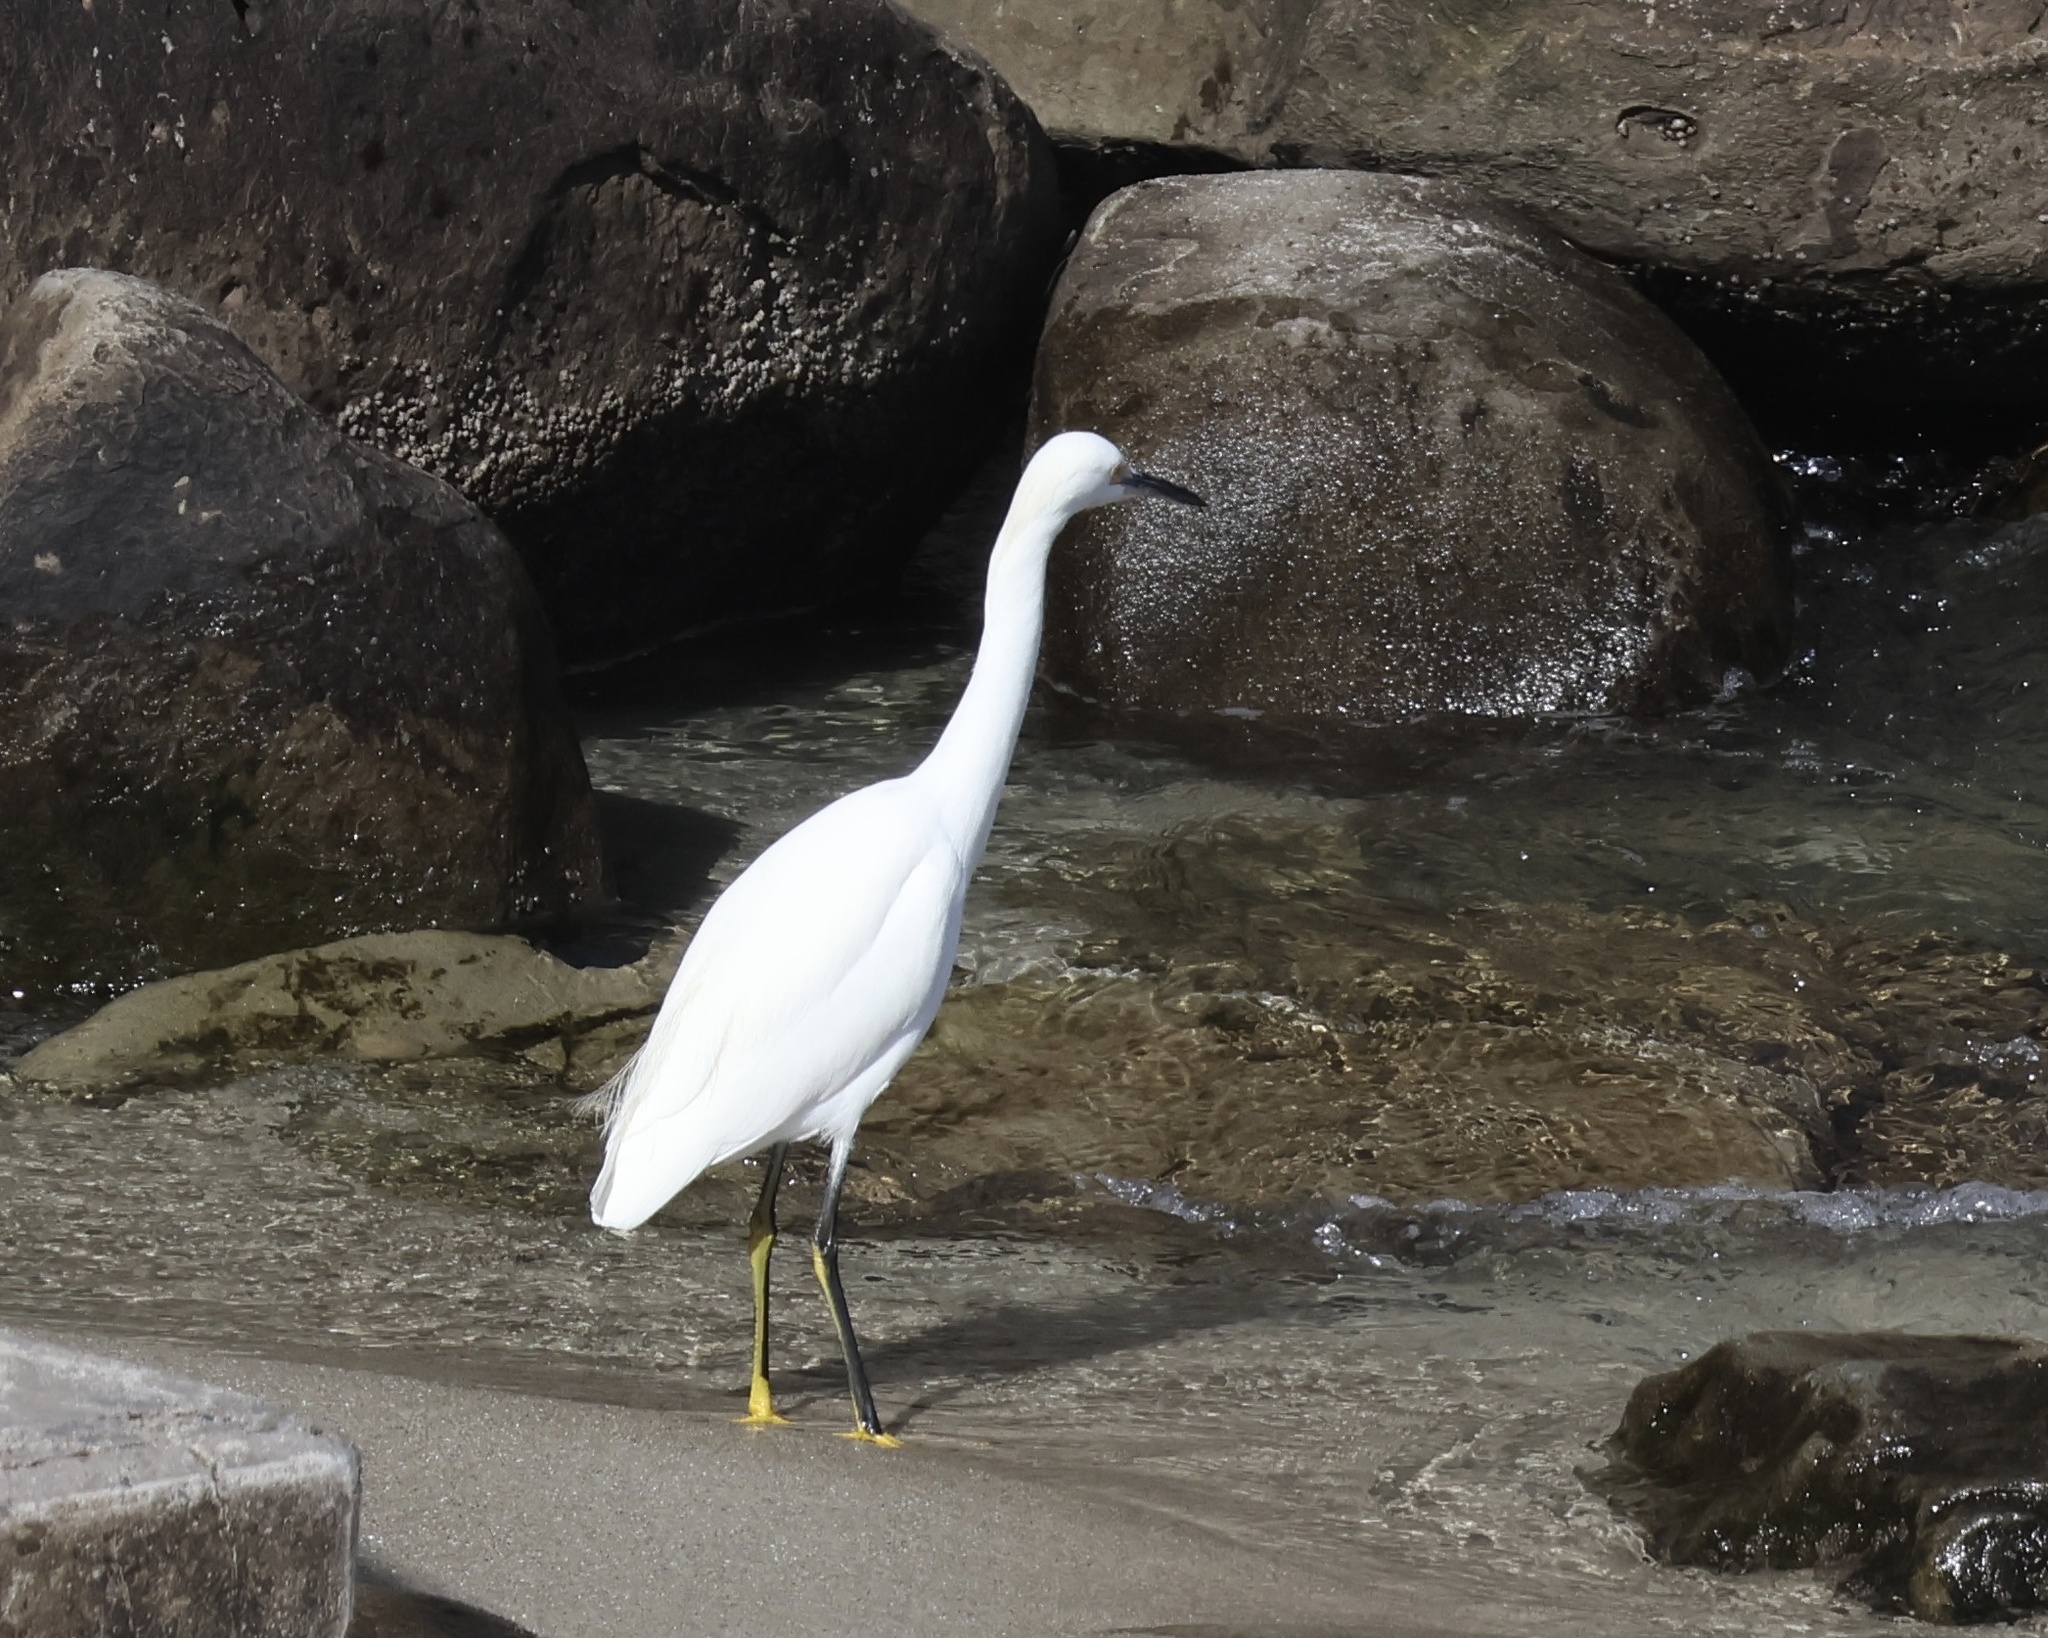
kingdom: Animalia
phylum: Chordata
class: Aves
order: Pelecaniformes
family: Ardeidae
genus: Egretta
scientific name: Egretta thula
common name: Snowy egret
